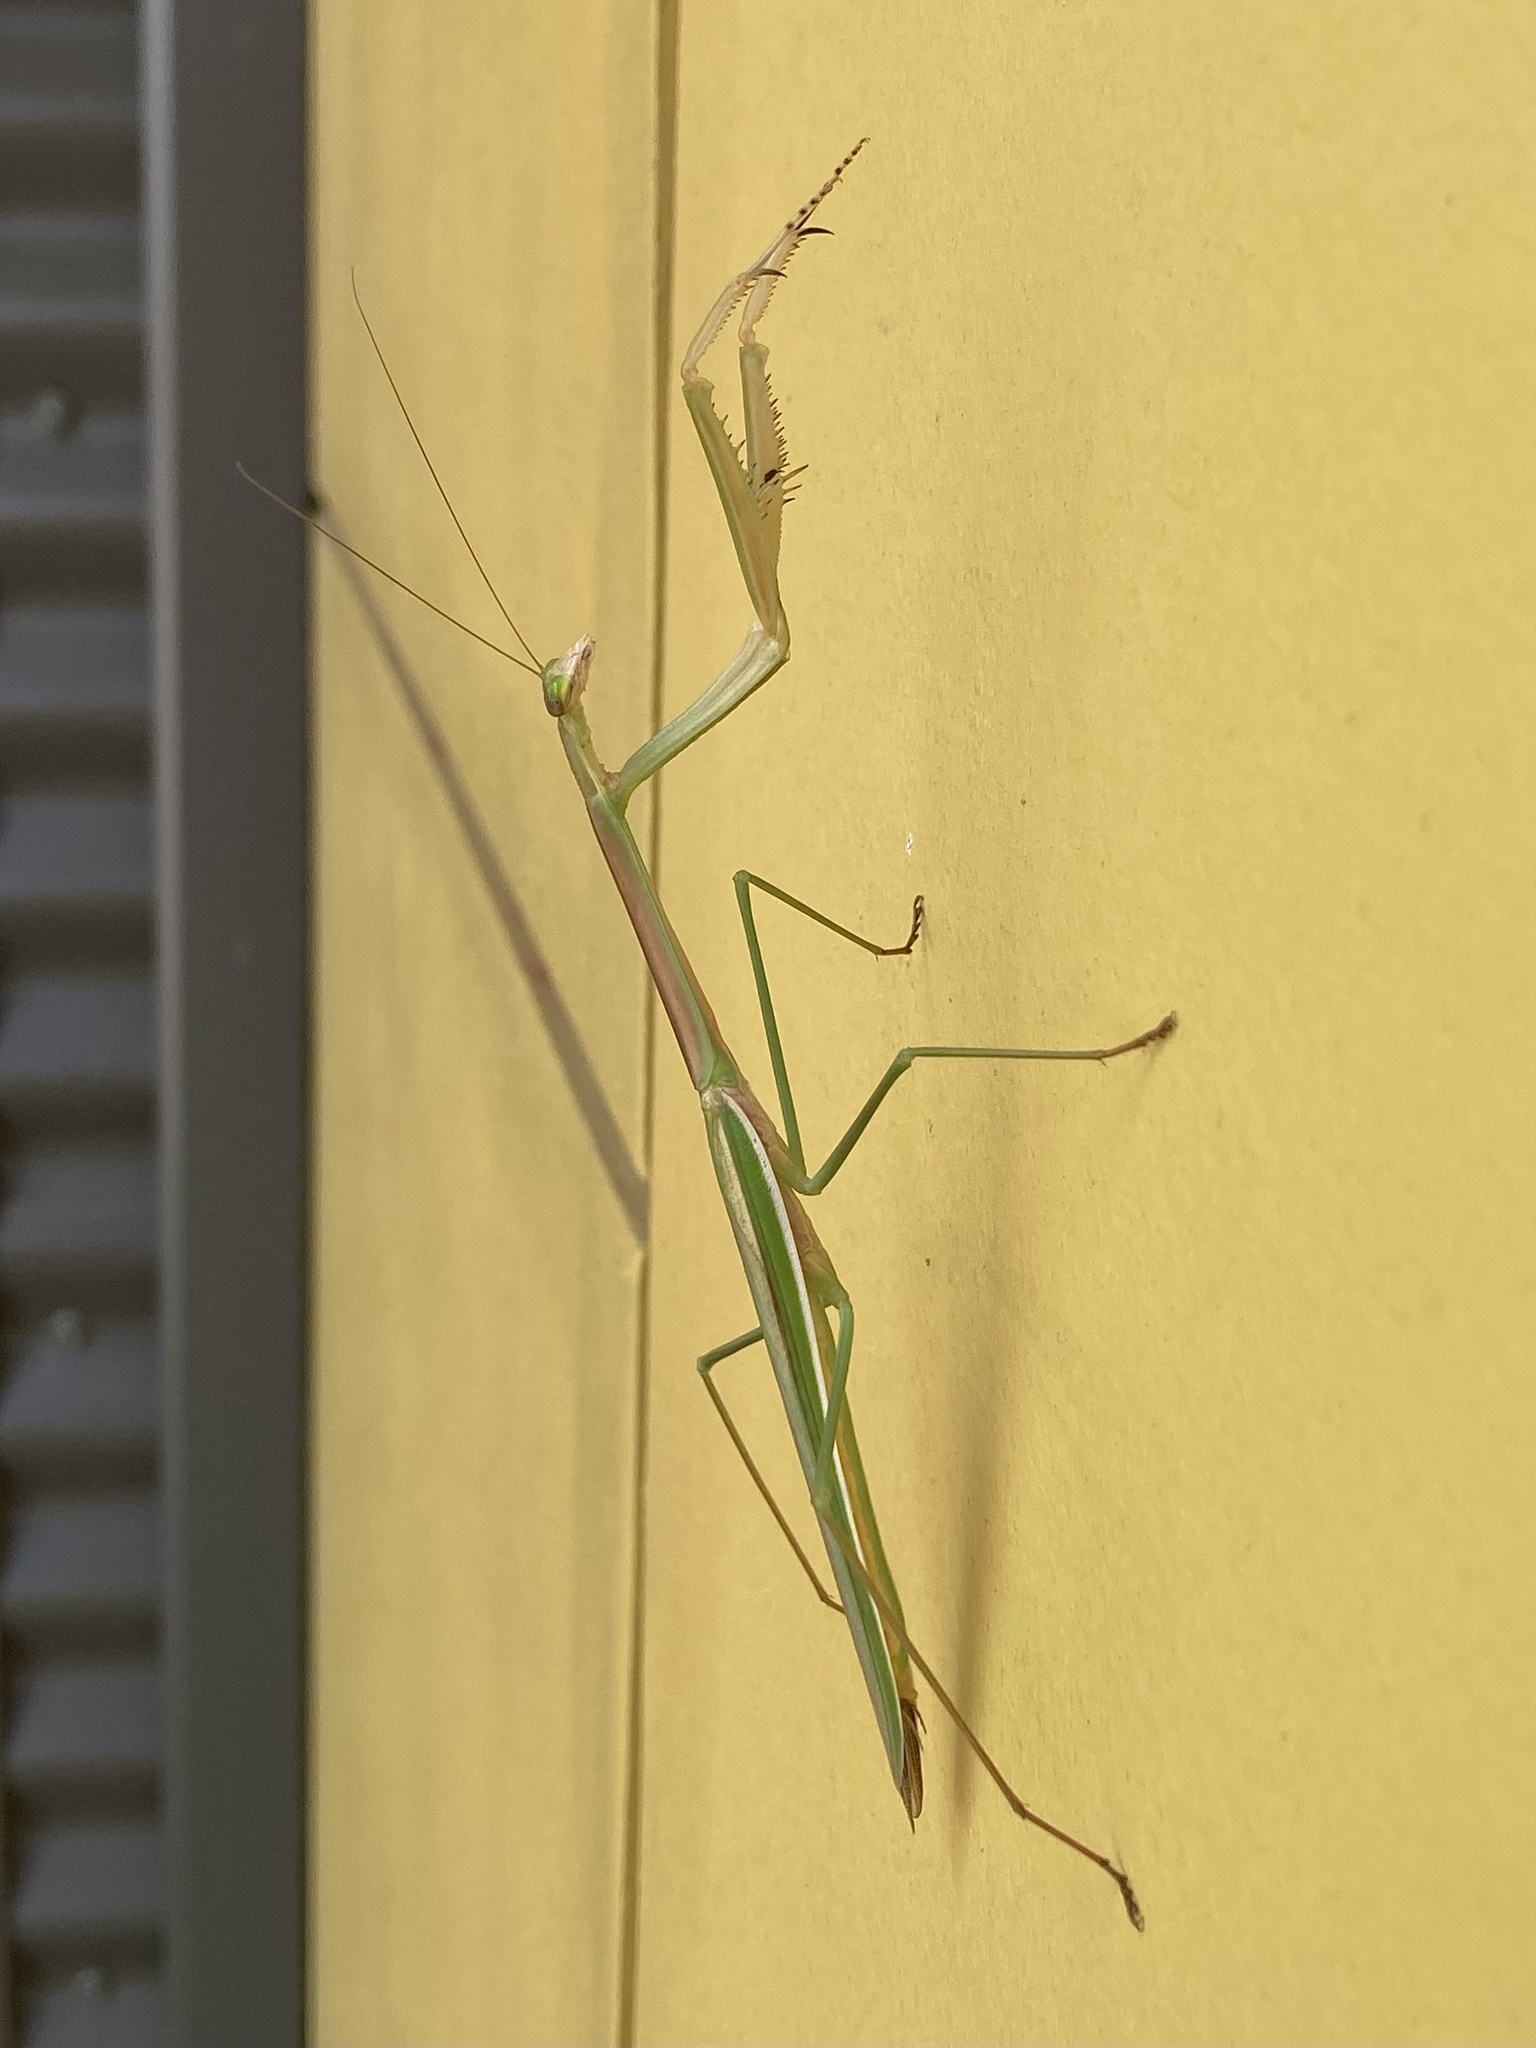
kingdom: Animalia
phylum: Arthropoda
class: Insecta
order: Mantodea
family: Mantidae
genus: Tenodera
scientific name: Tenodera
